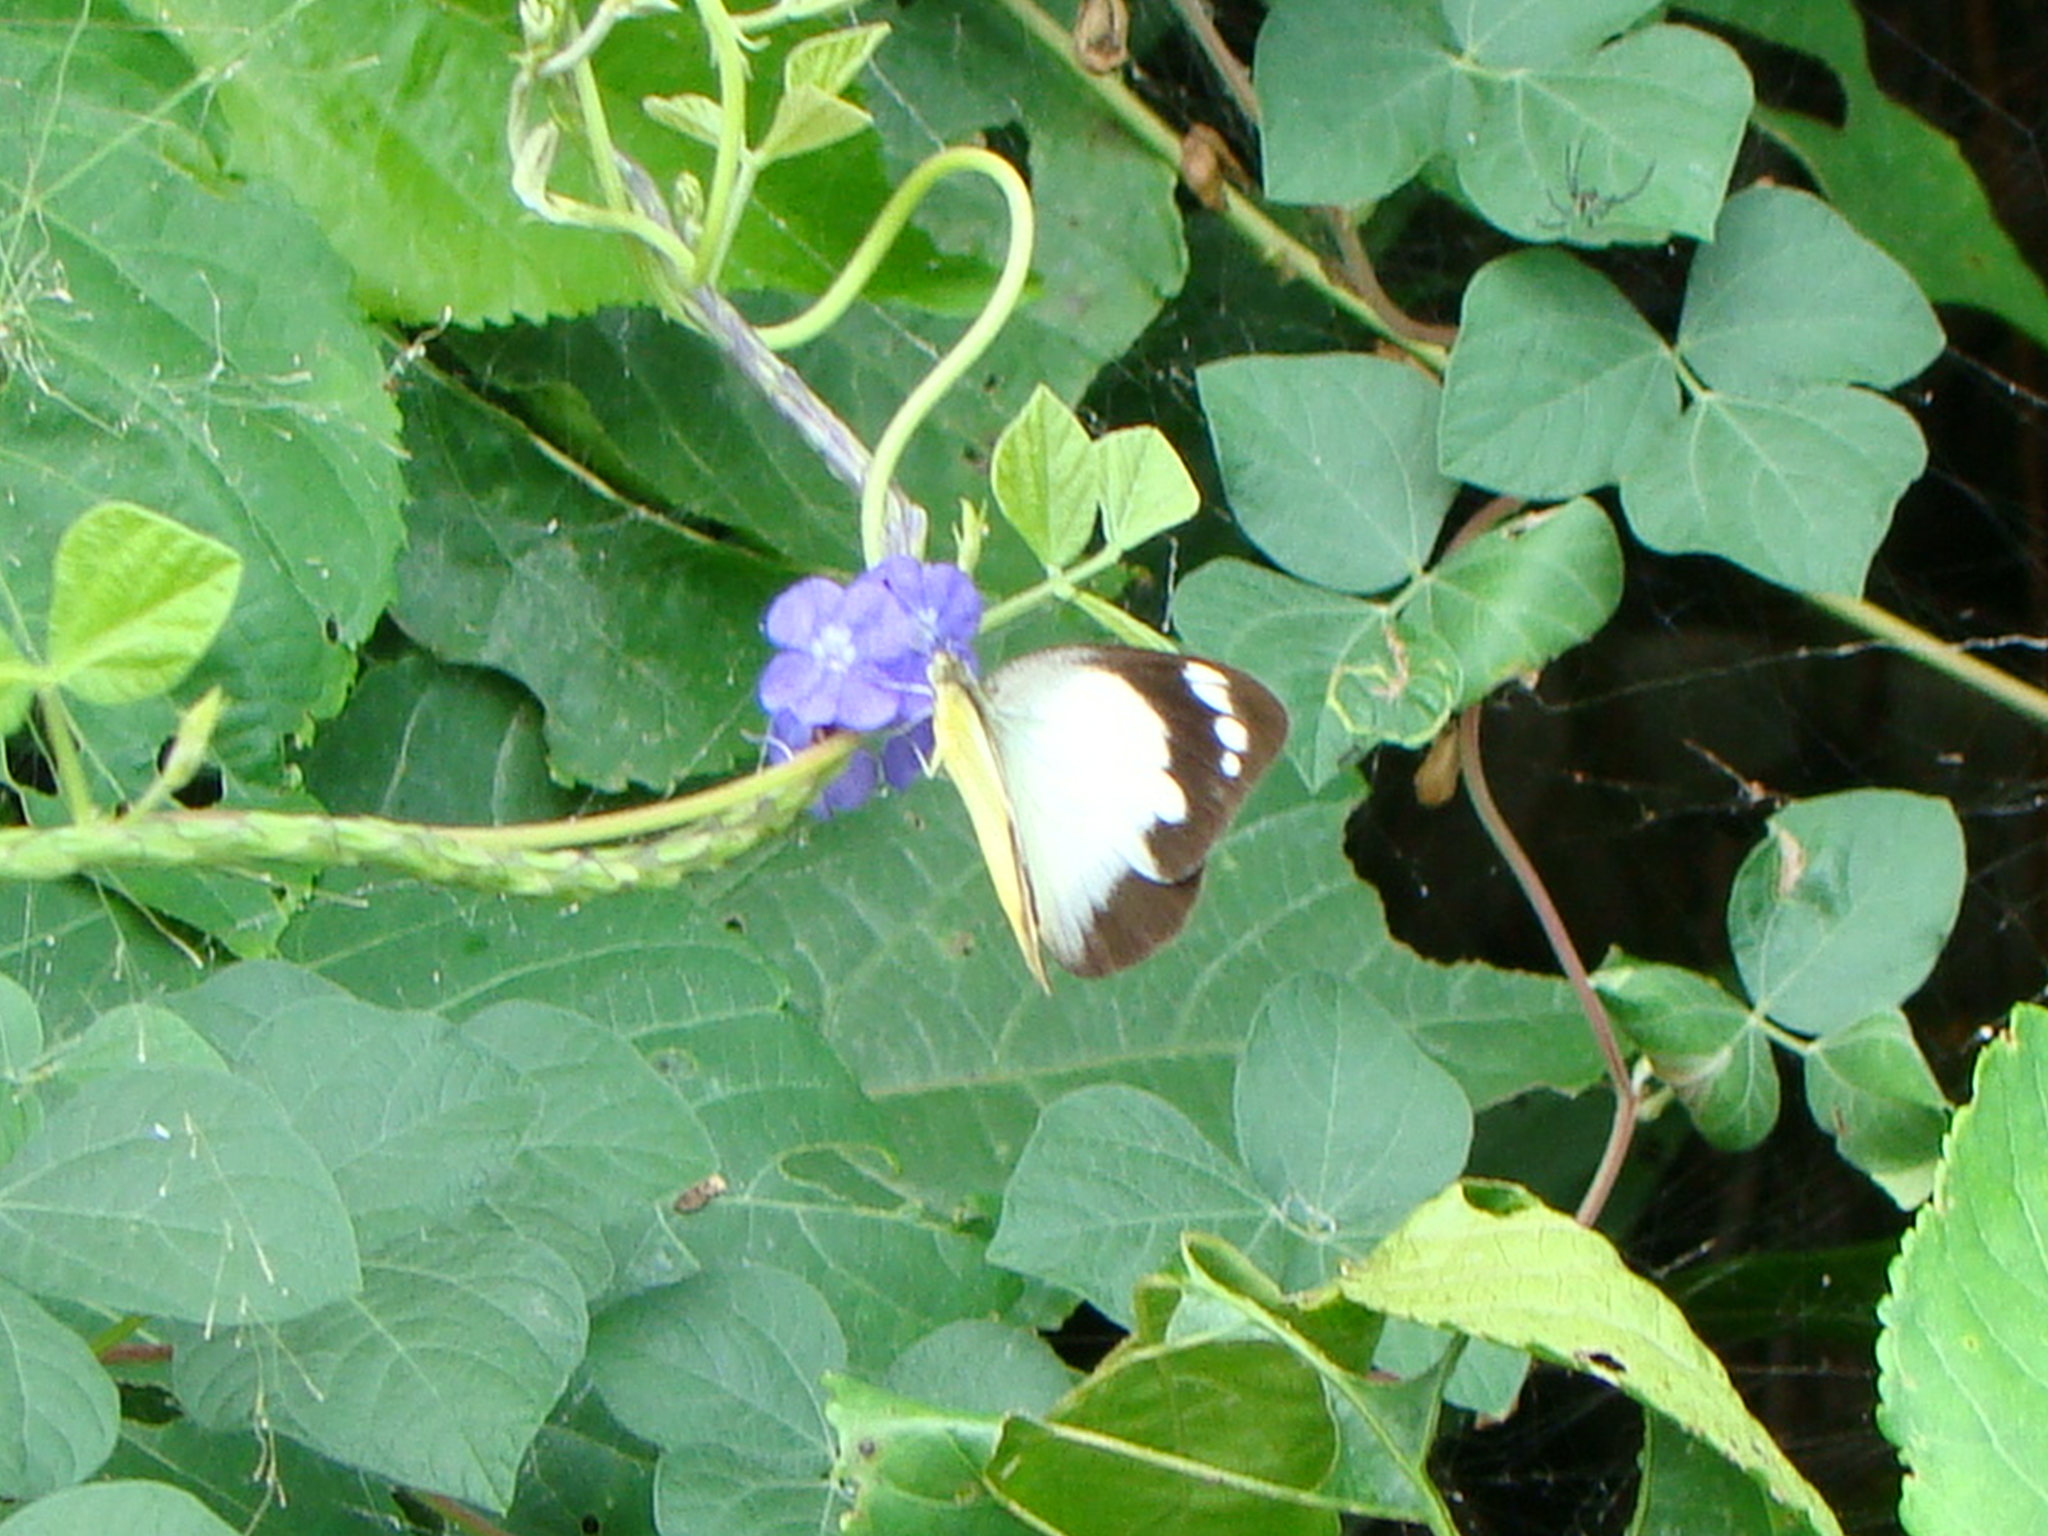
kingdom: Animalia
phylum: Arthropoda
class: Insecta
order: Lepidoptera
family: Pieridae
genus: Appias
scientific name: Appias paulina
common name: Ceylon lesser albatross
